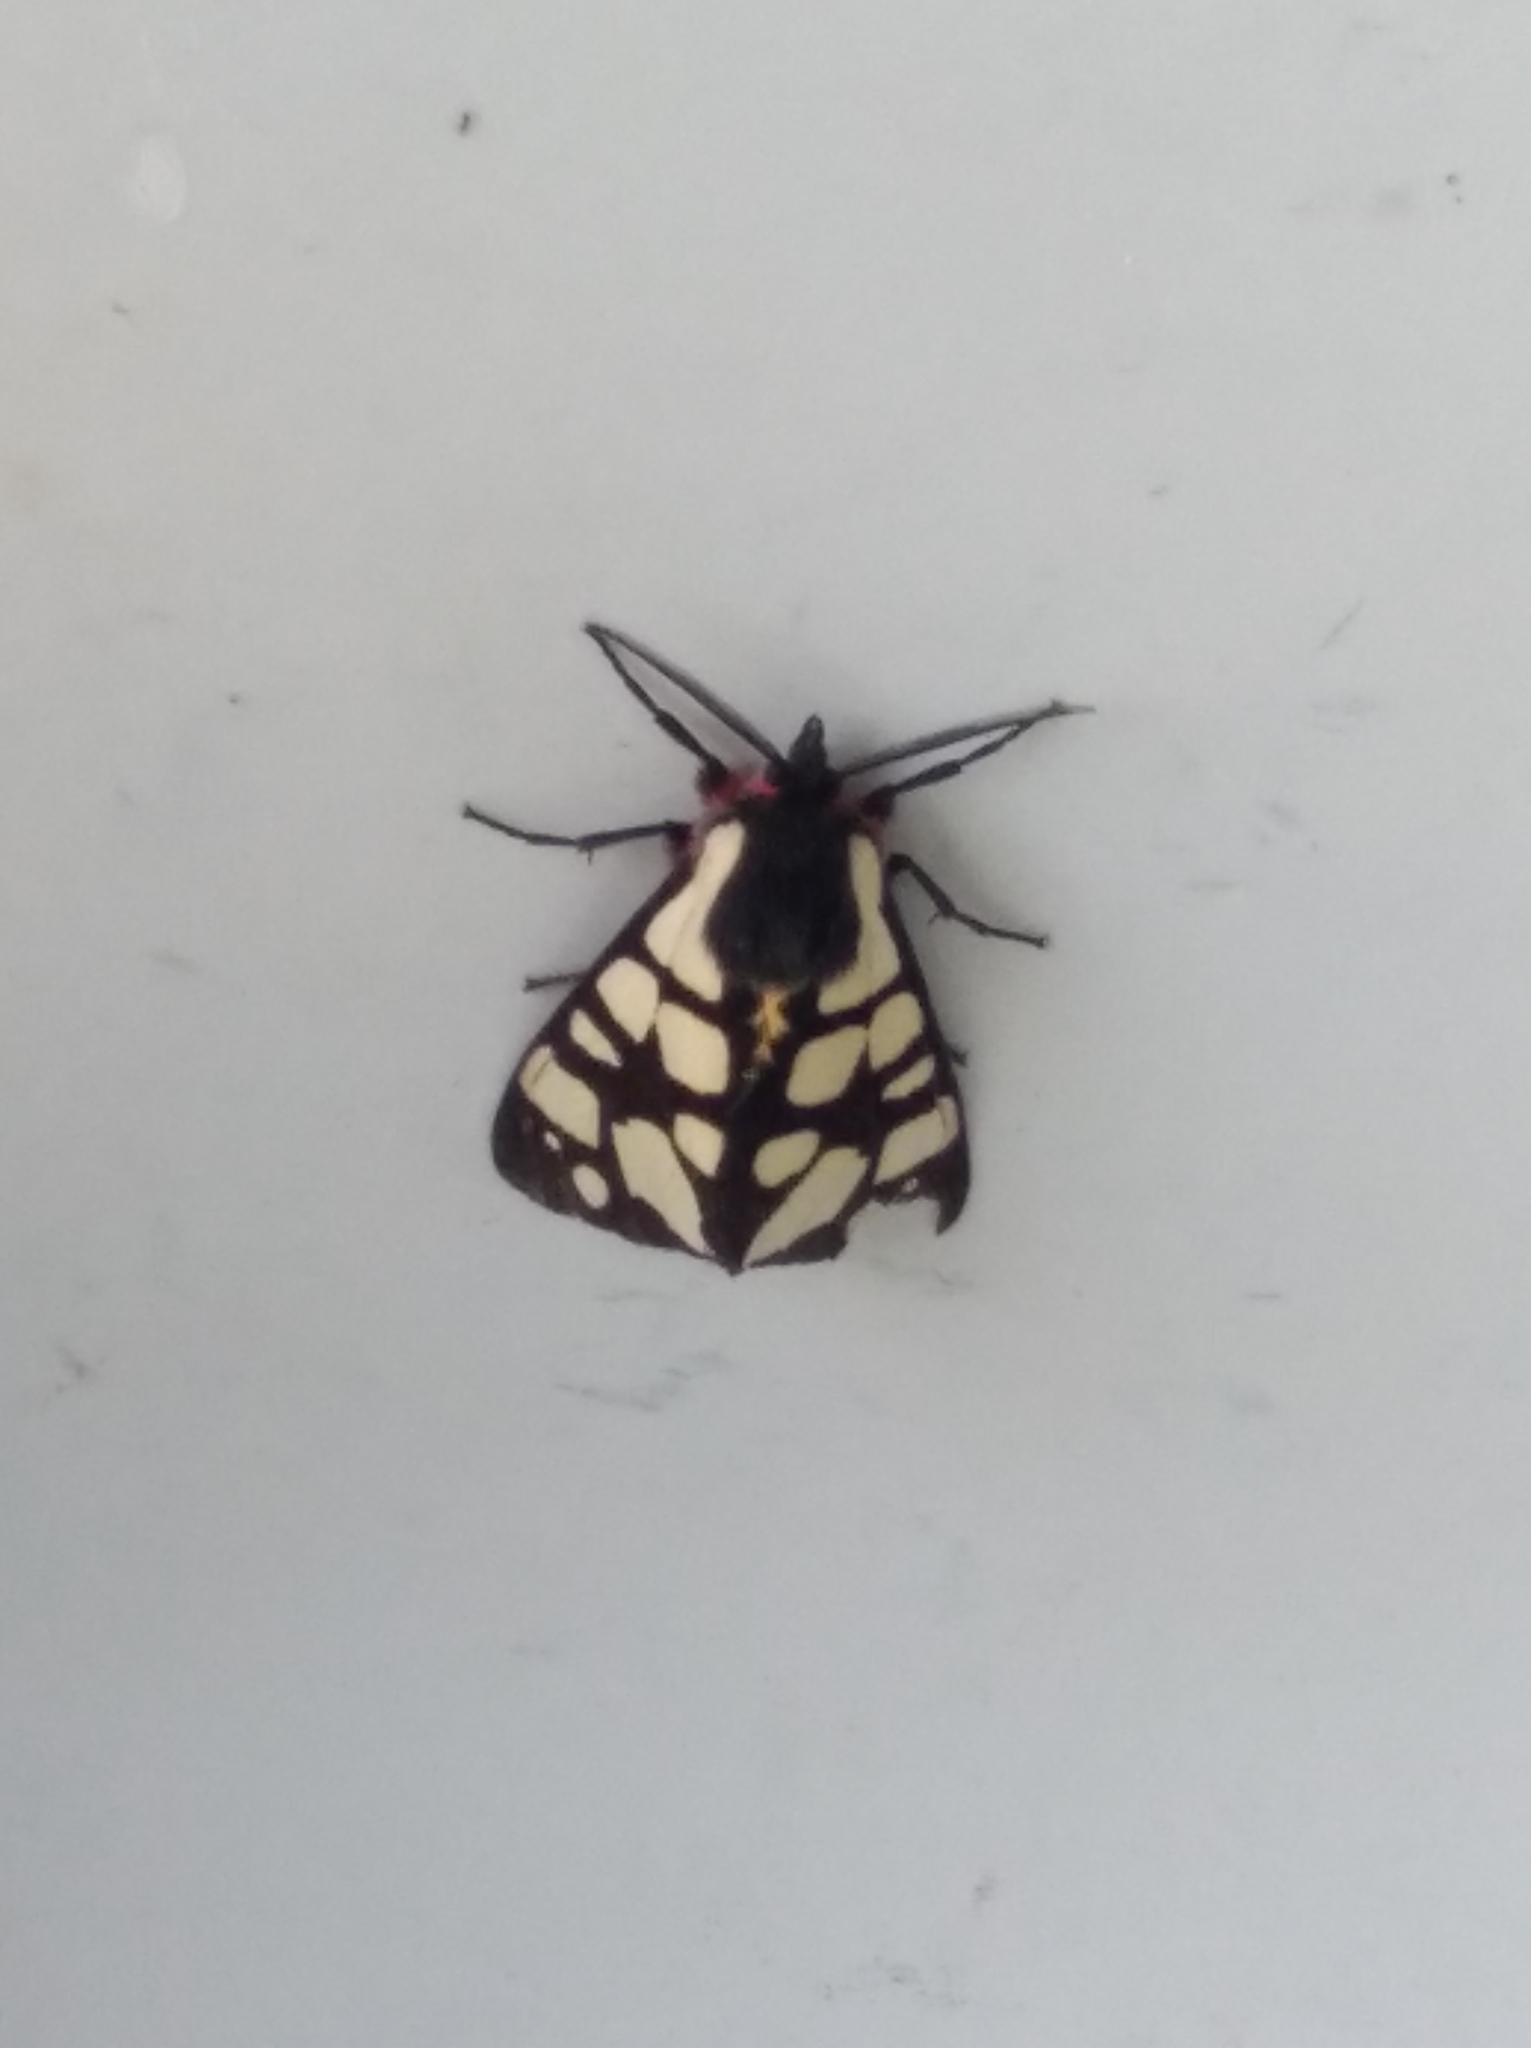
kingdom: Animalia
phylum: Arthropoda
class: Insecta
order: Lepidoptera
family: Erebidae
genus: Epicallia
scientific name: Epicallia villica
